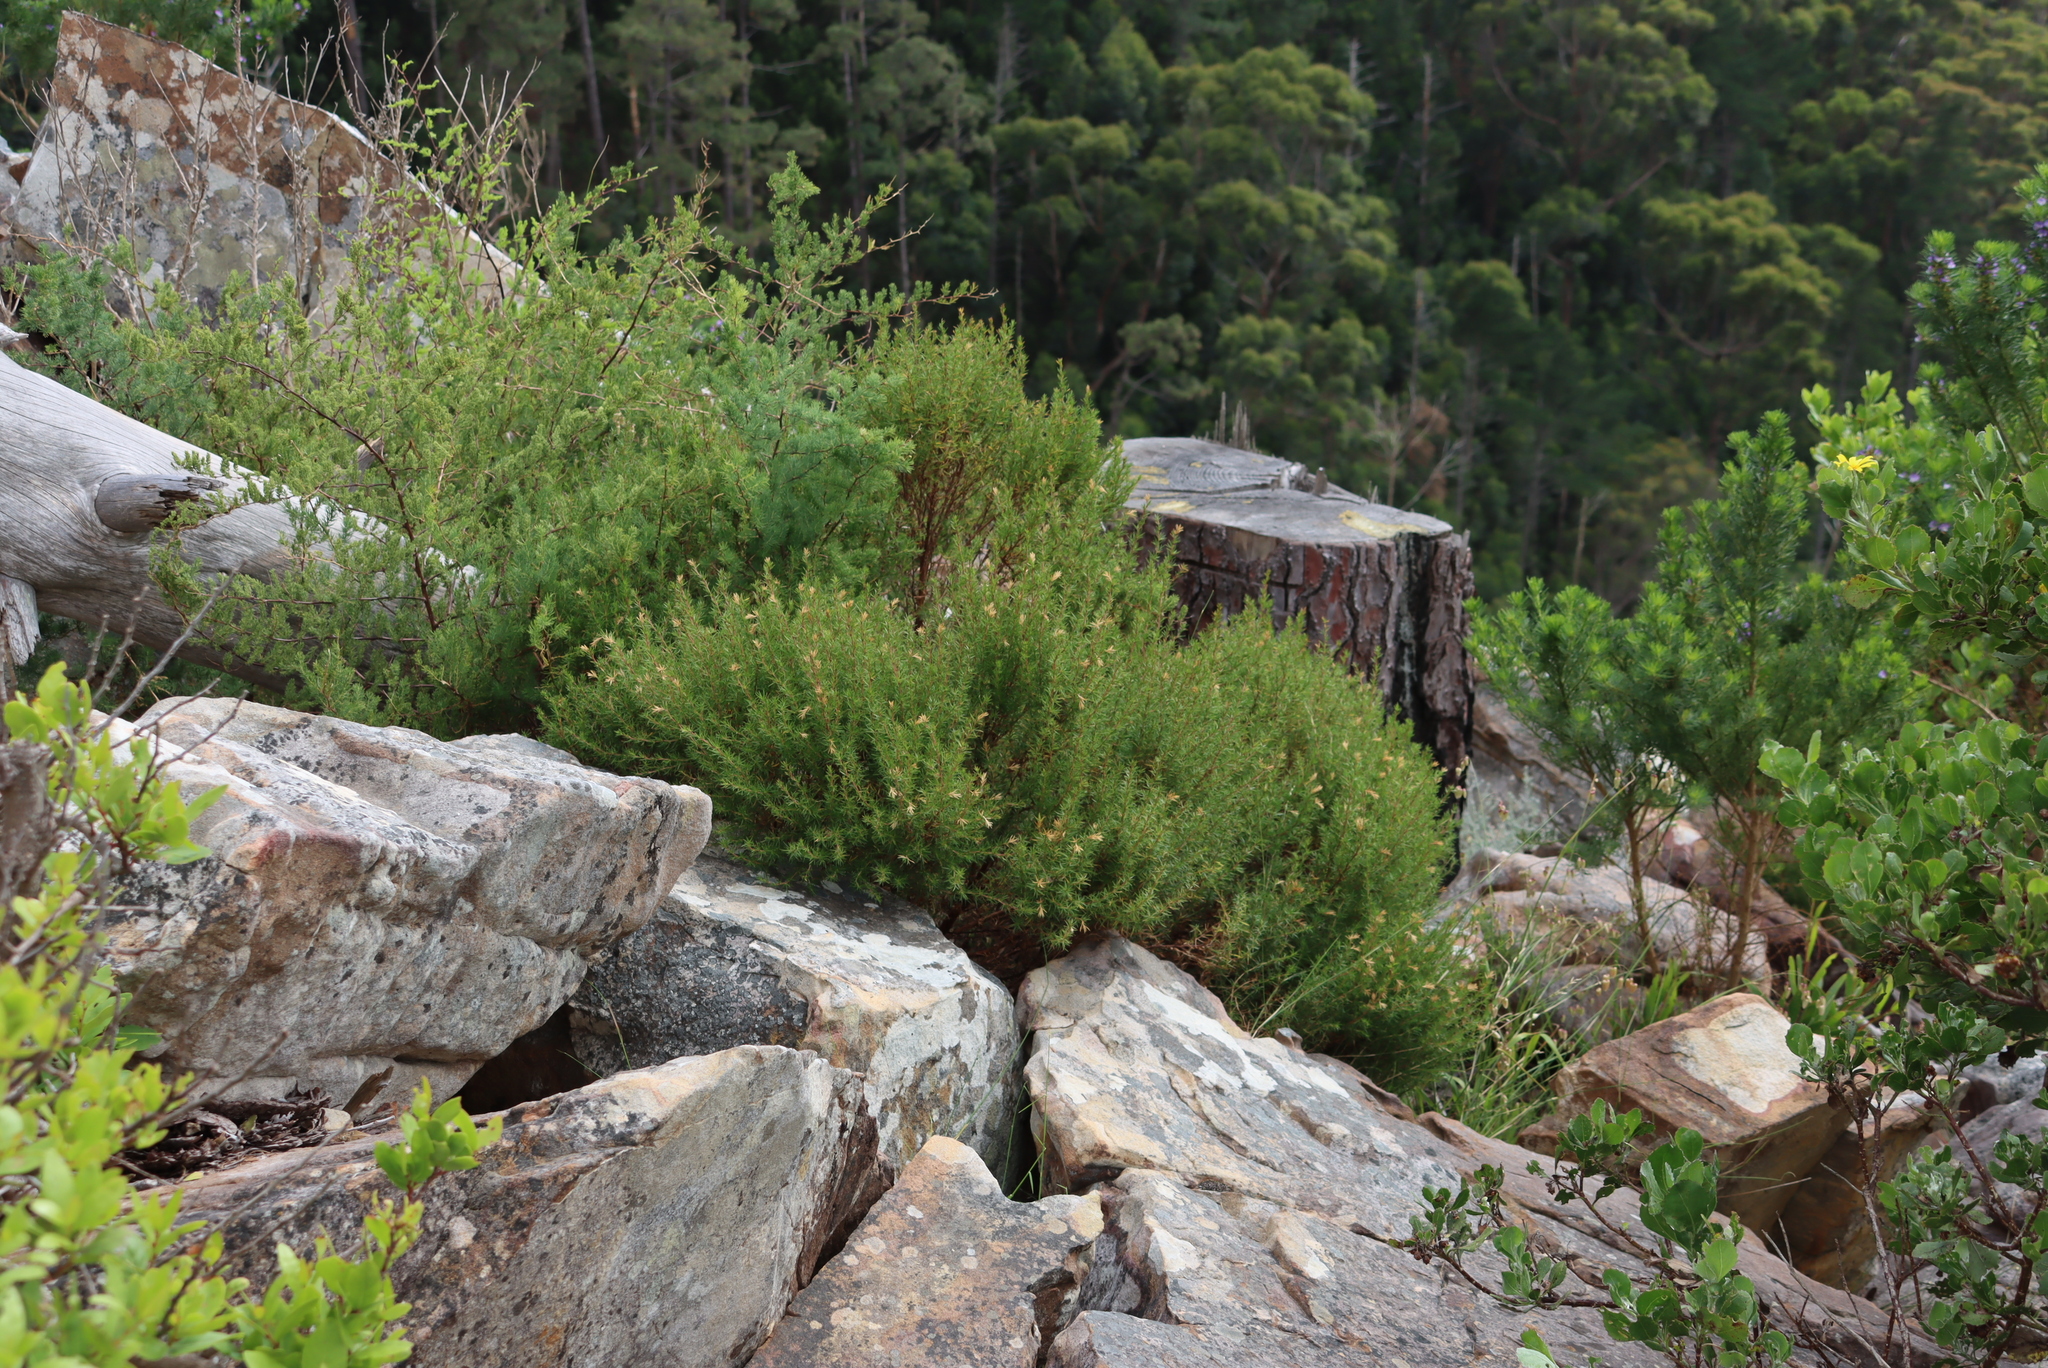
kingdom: Plantae
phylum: Tracheophyta
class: Liliopsida
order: Asparagales
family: Asparagaceae
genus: Asparagus
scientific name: Asparagus rubicundus
